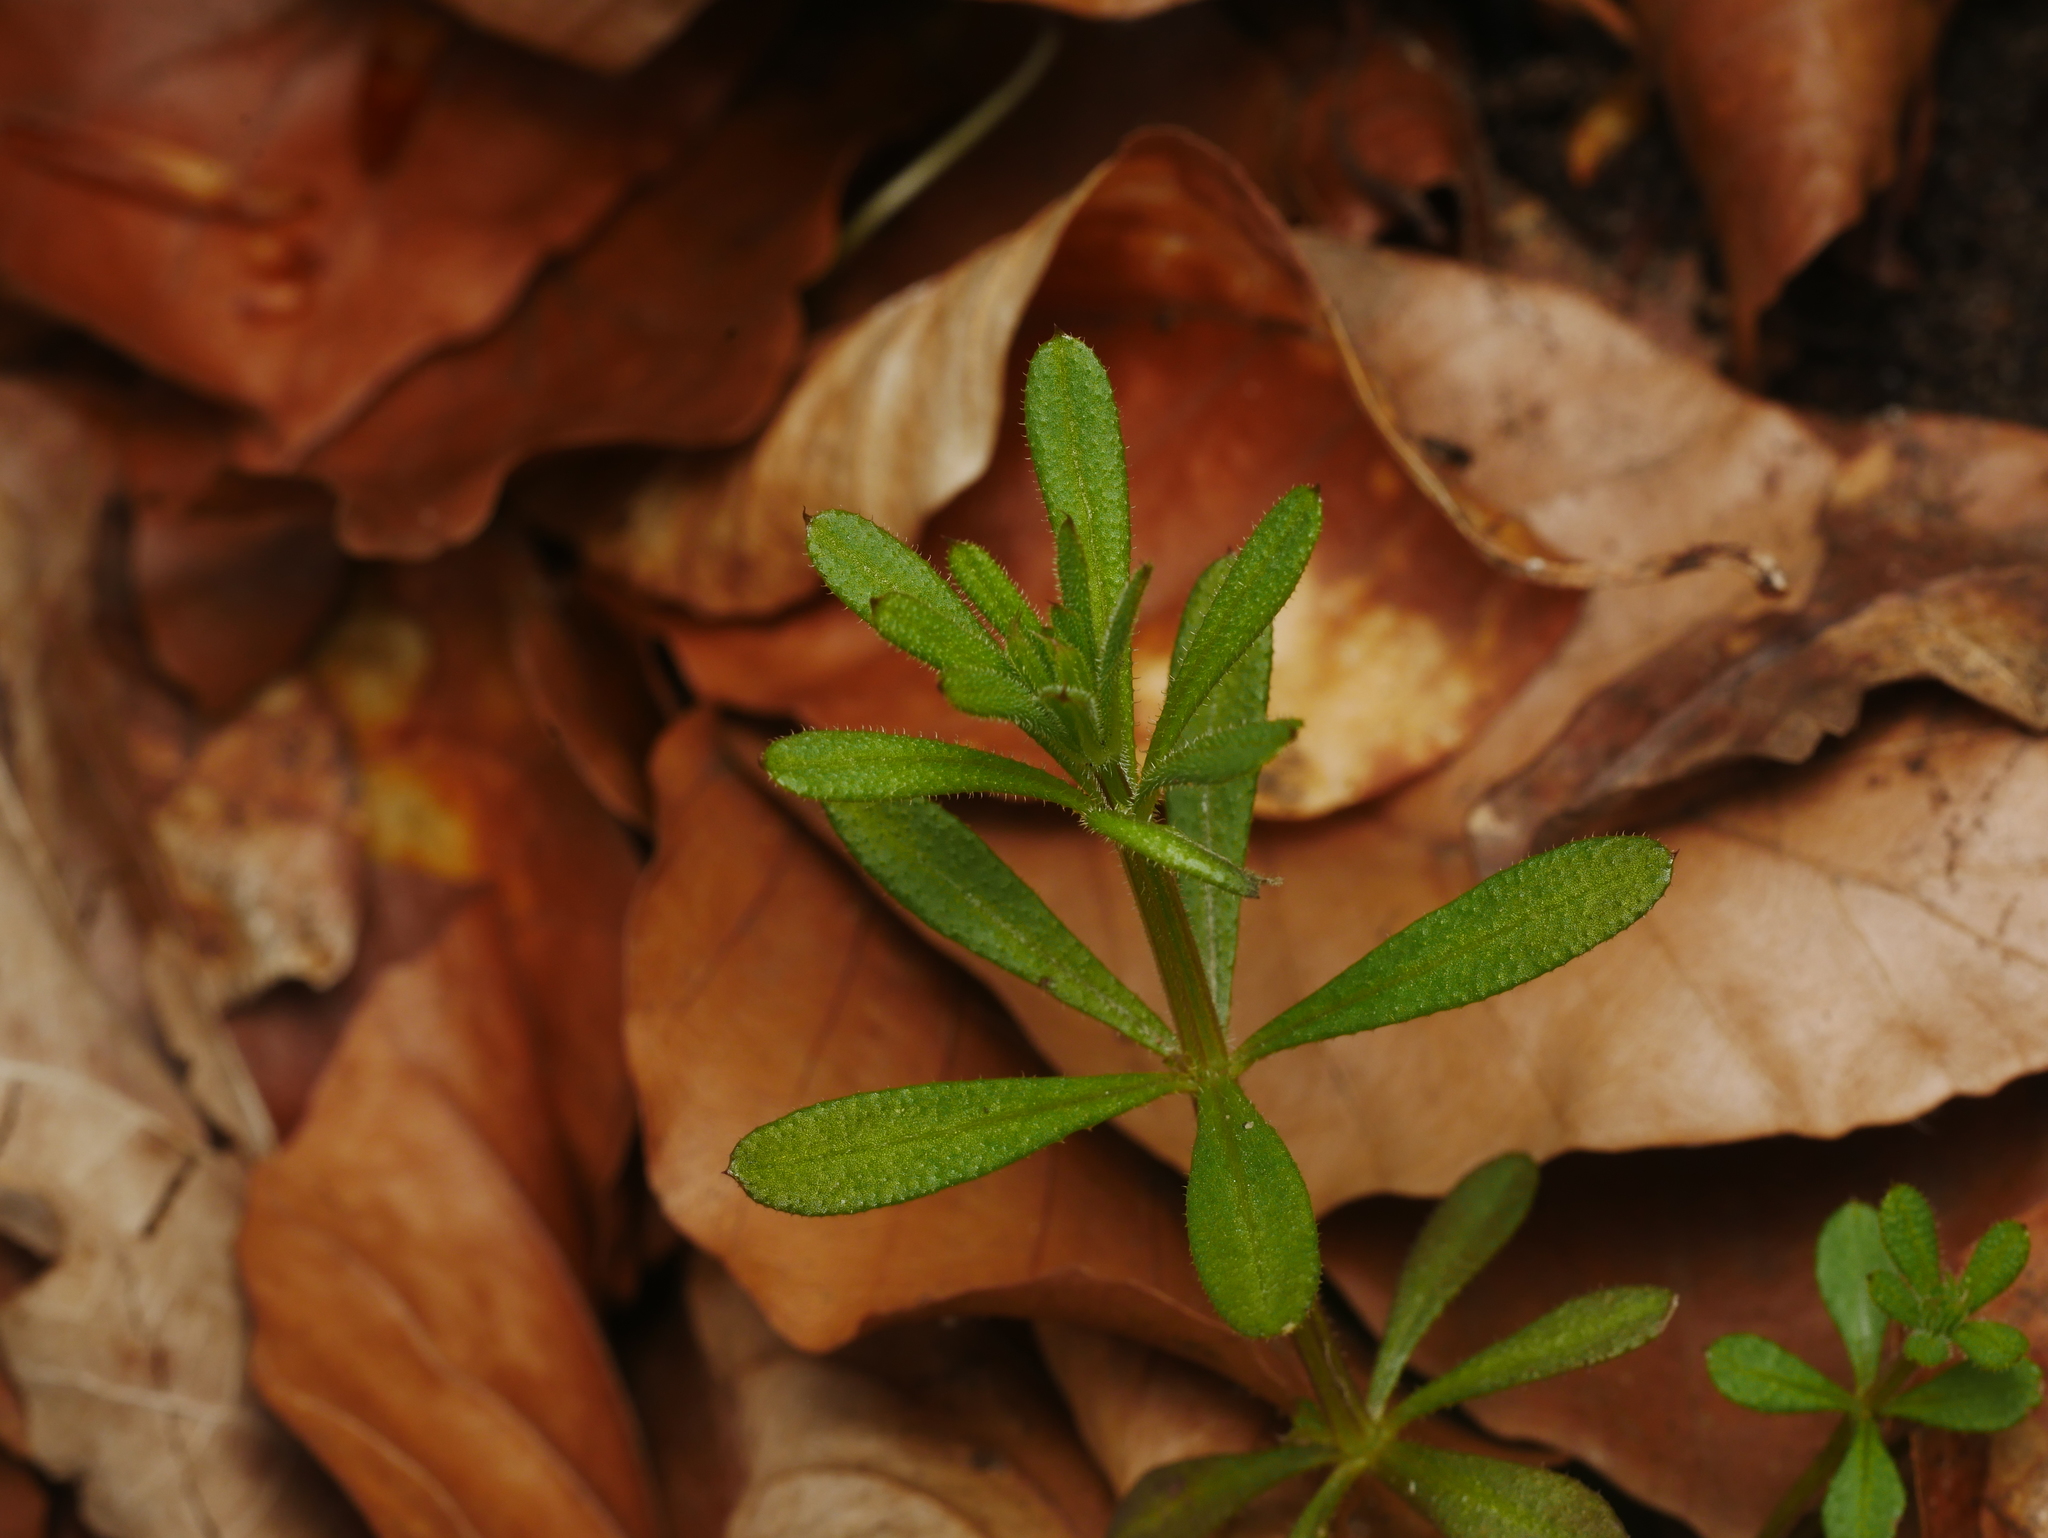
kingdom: Plantae
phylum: Tracheophyta
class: Magnoliopsida
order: Gentianales
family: Rubiaceae
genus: Galium
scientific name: Galium aparine
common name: Cleavers
